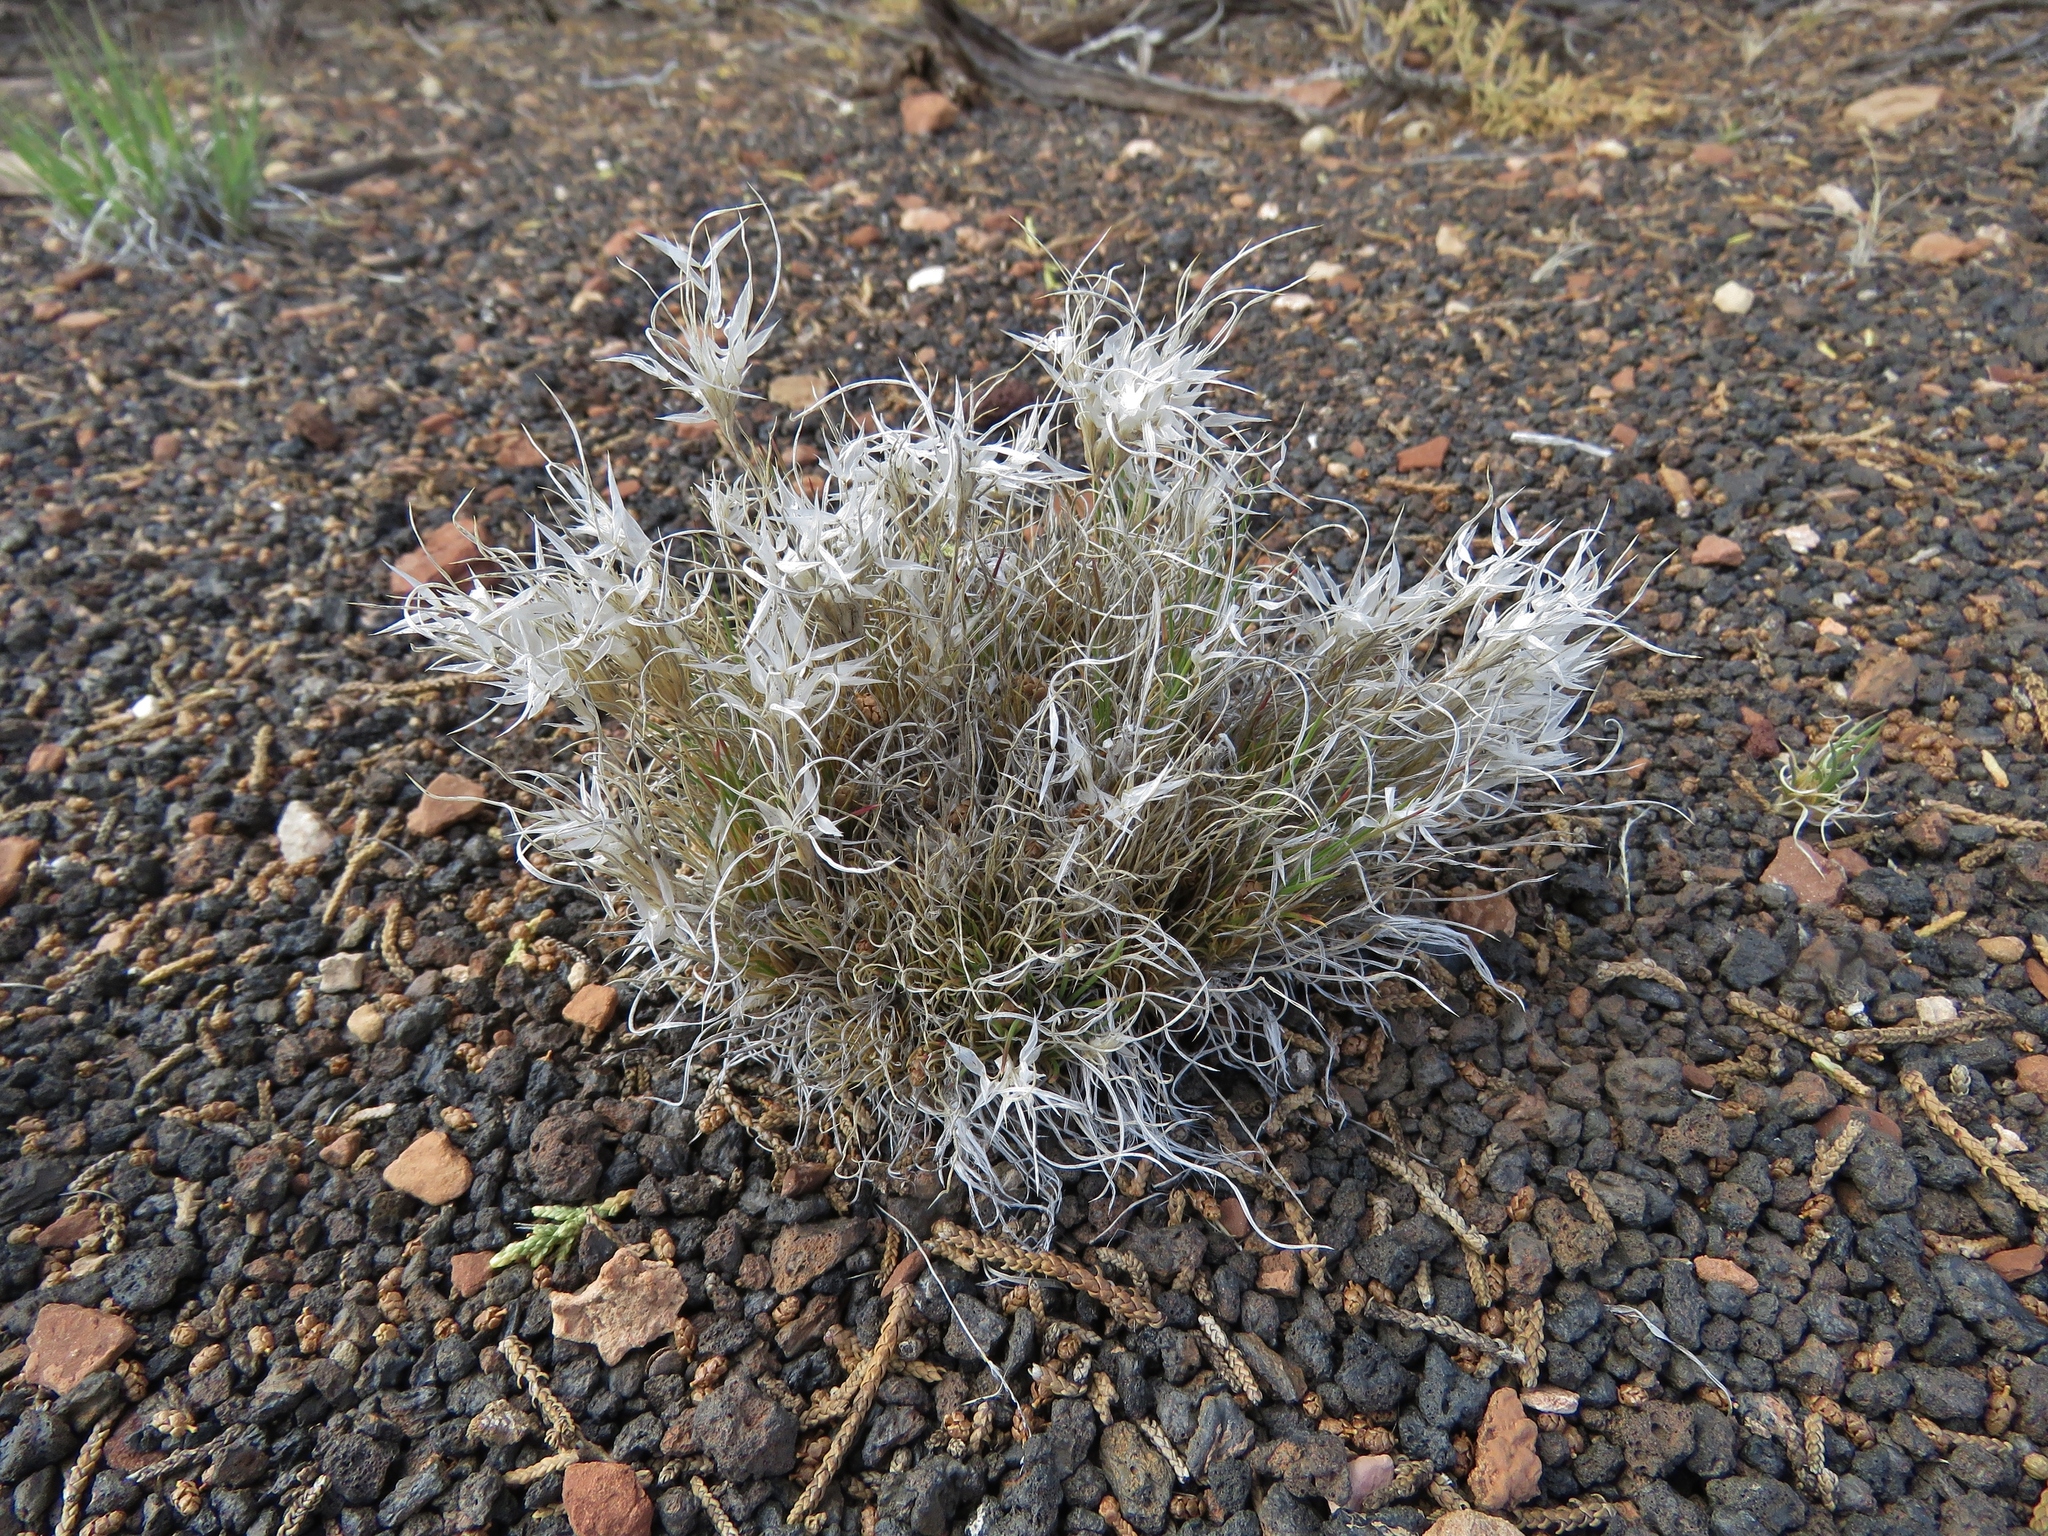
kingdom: Plantae
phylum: Tracheophyta
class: Liliopsida
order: Poales
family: Poaceae
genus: Dasyochloa
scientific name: Dasyochloa pulchella
